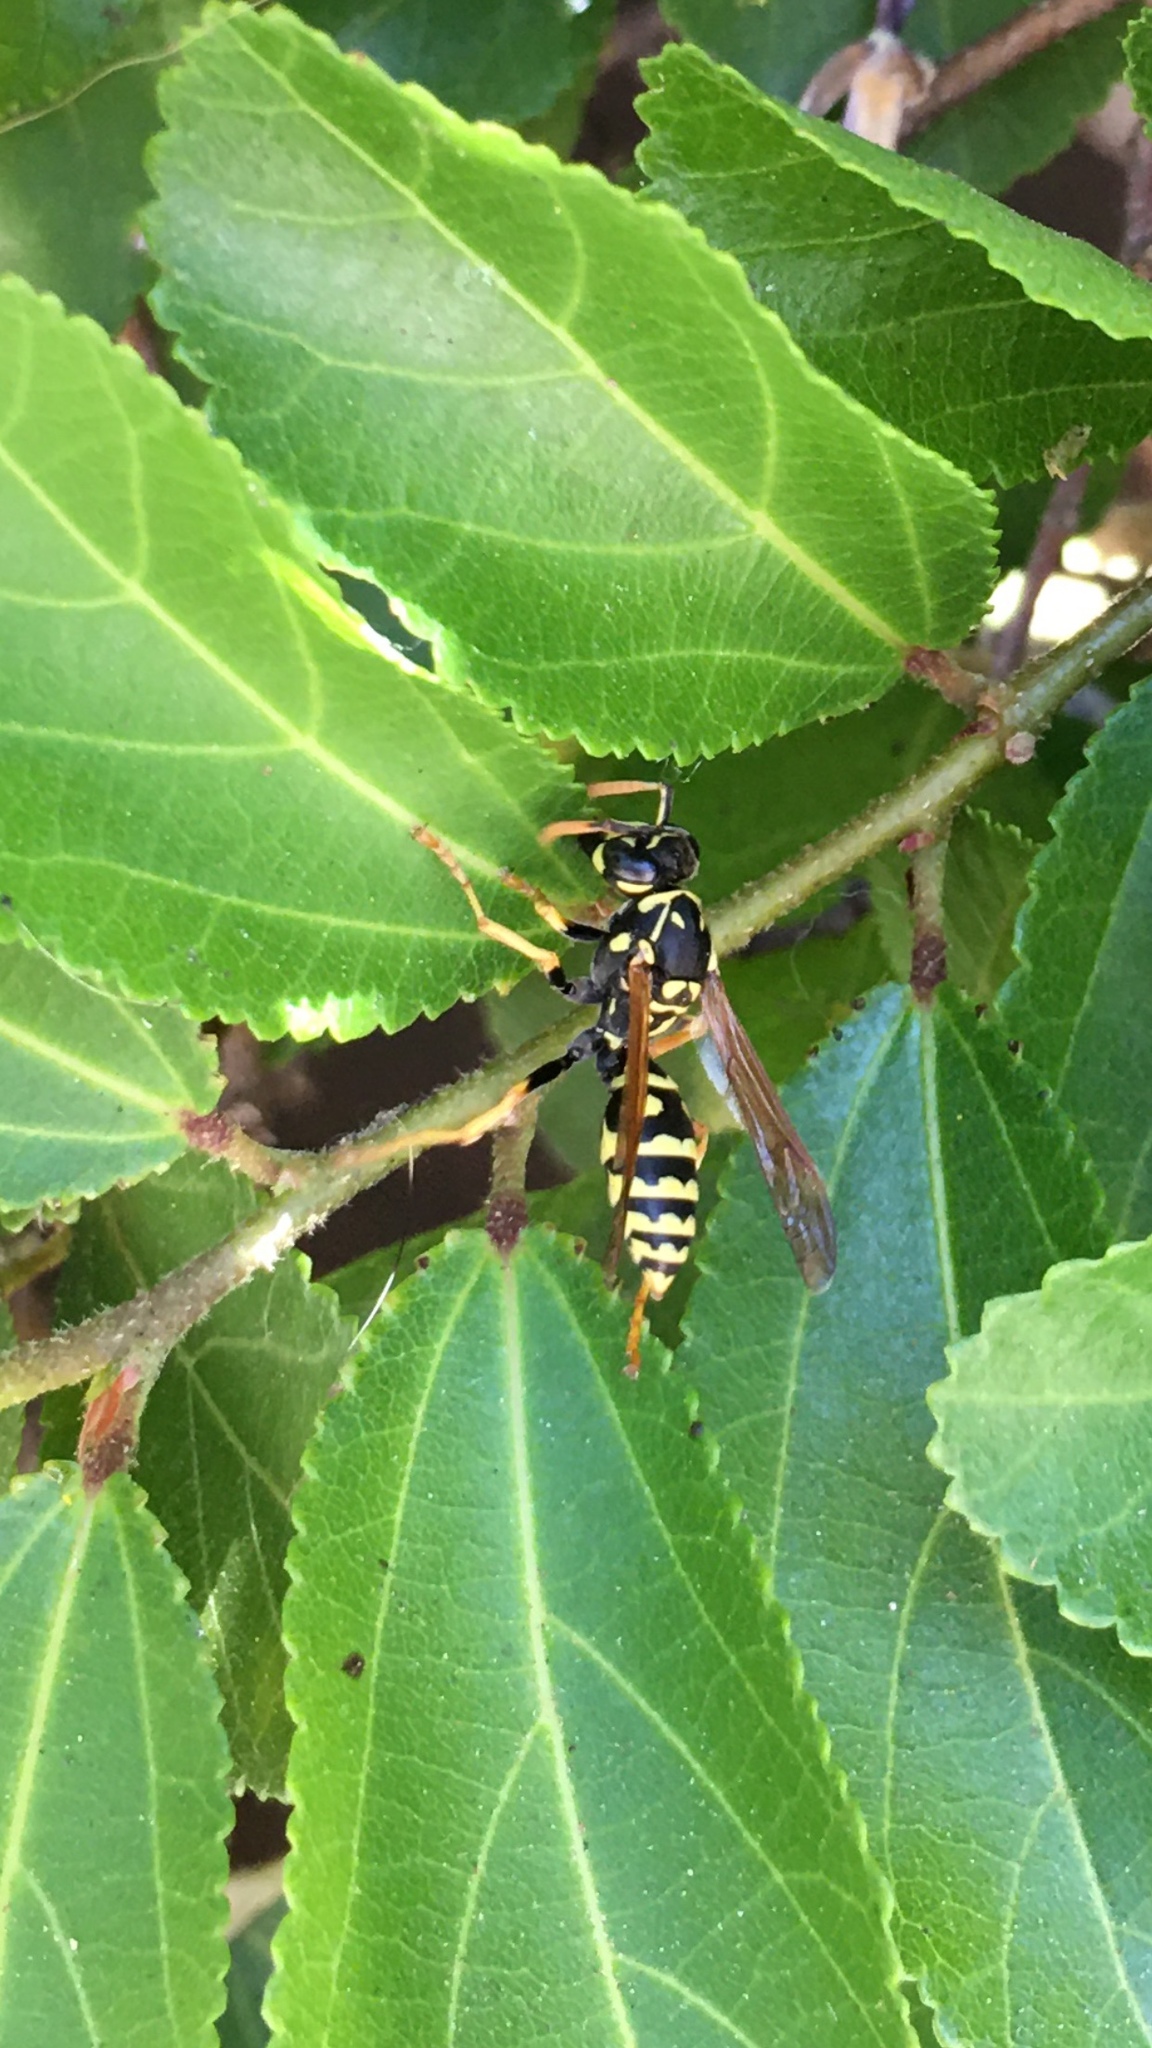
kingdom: Animalia
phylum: Arthropoda
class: Insecta
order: Hymenoptera
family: Eumenidae
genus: Polistes
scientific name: Polistes dominula
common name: Paper wasp
